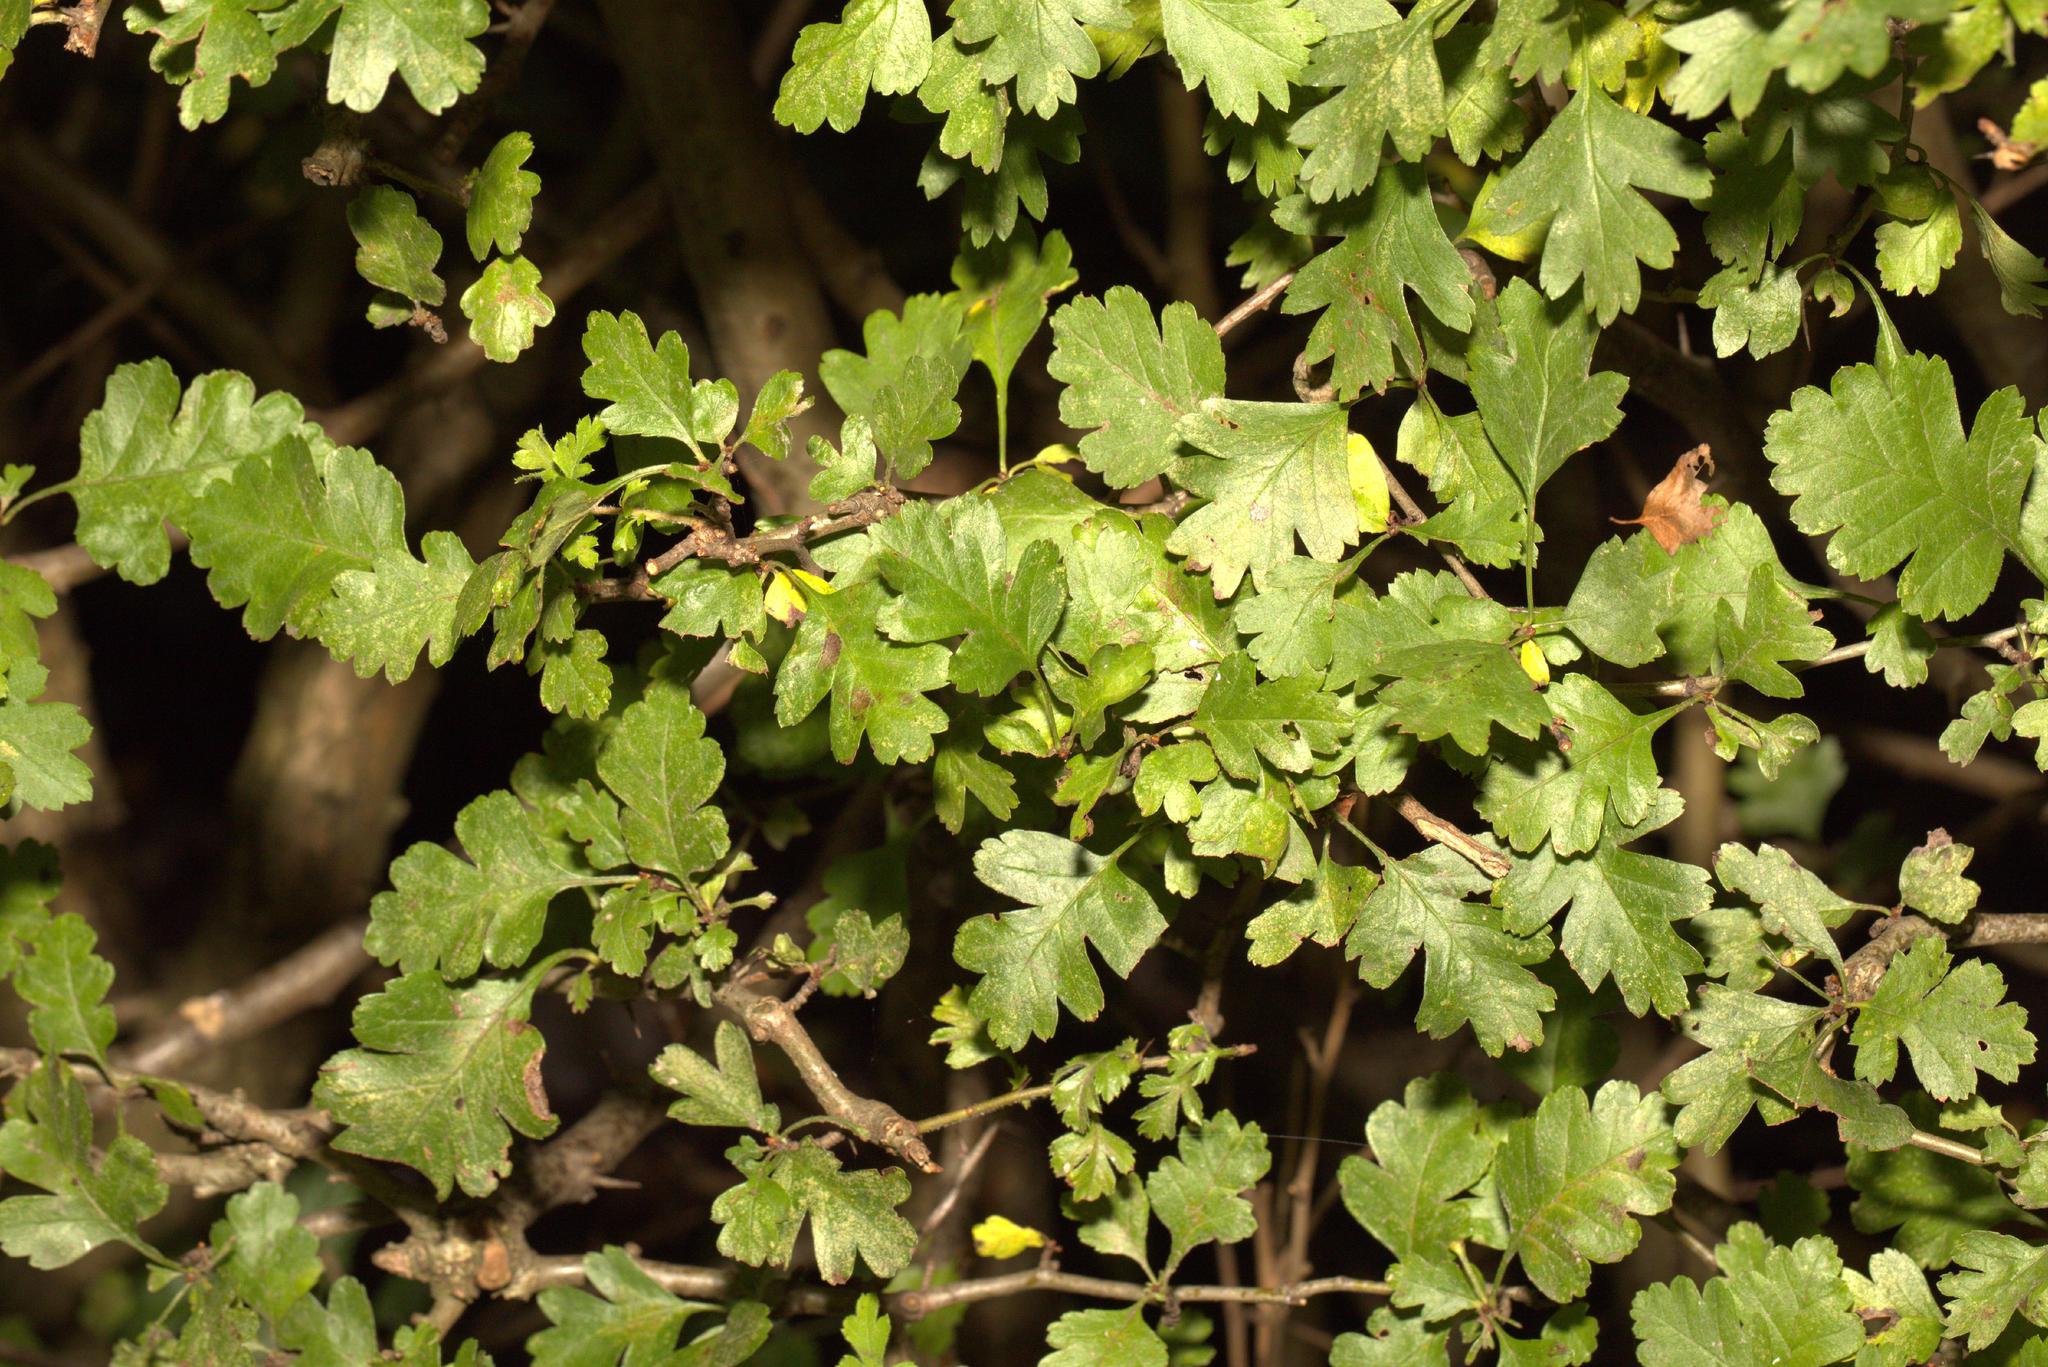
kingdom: Plantae
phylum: Tracheophyta
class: Magnoliopsida
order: Rosales
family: Rosaceae
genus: Crataegus
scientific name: Crataegus monogyna
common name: Hawthorn
